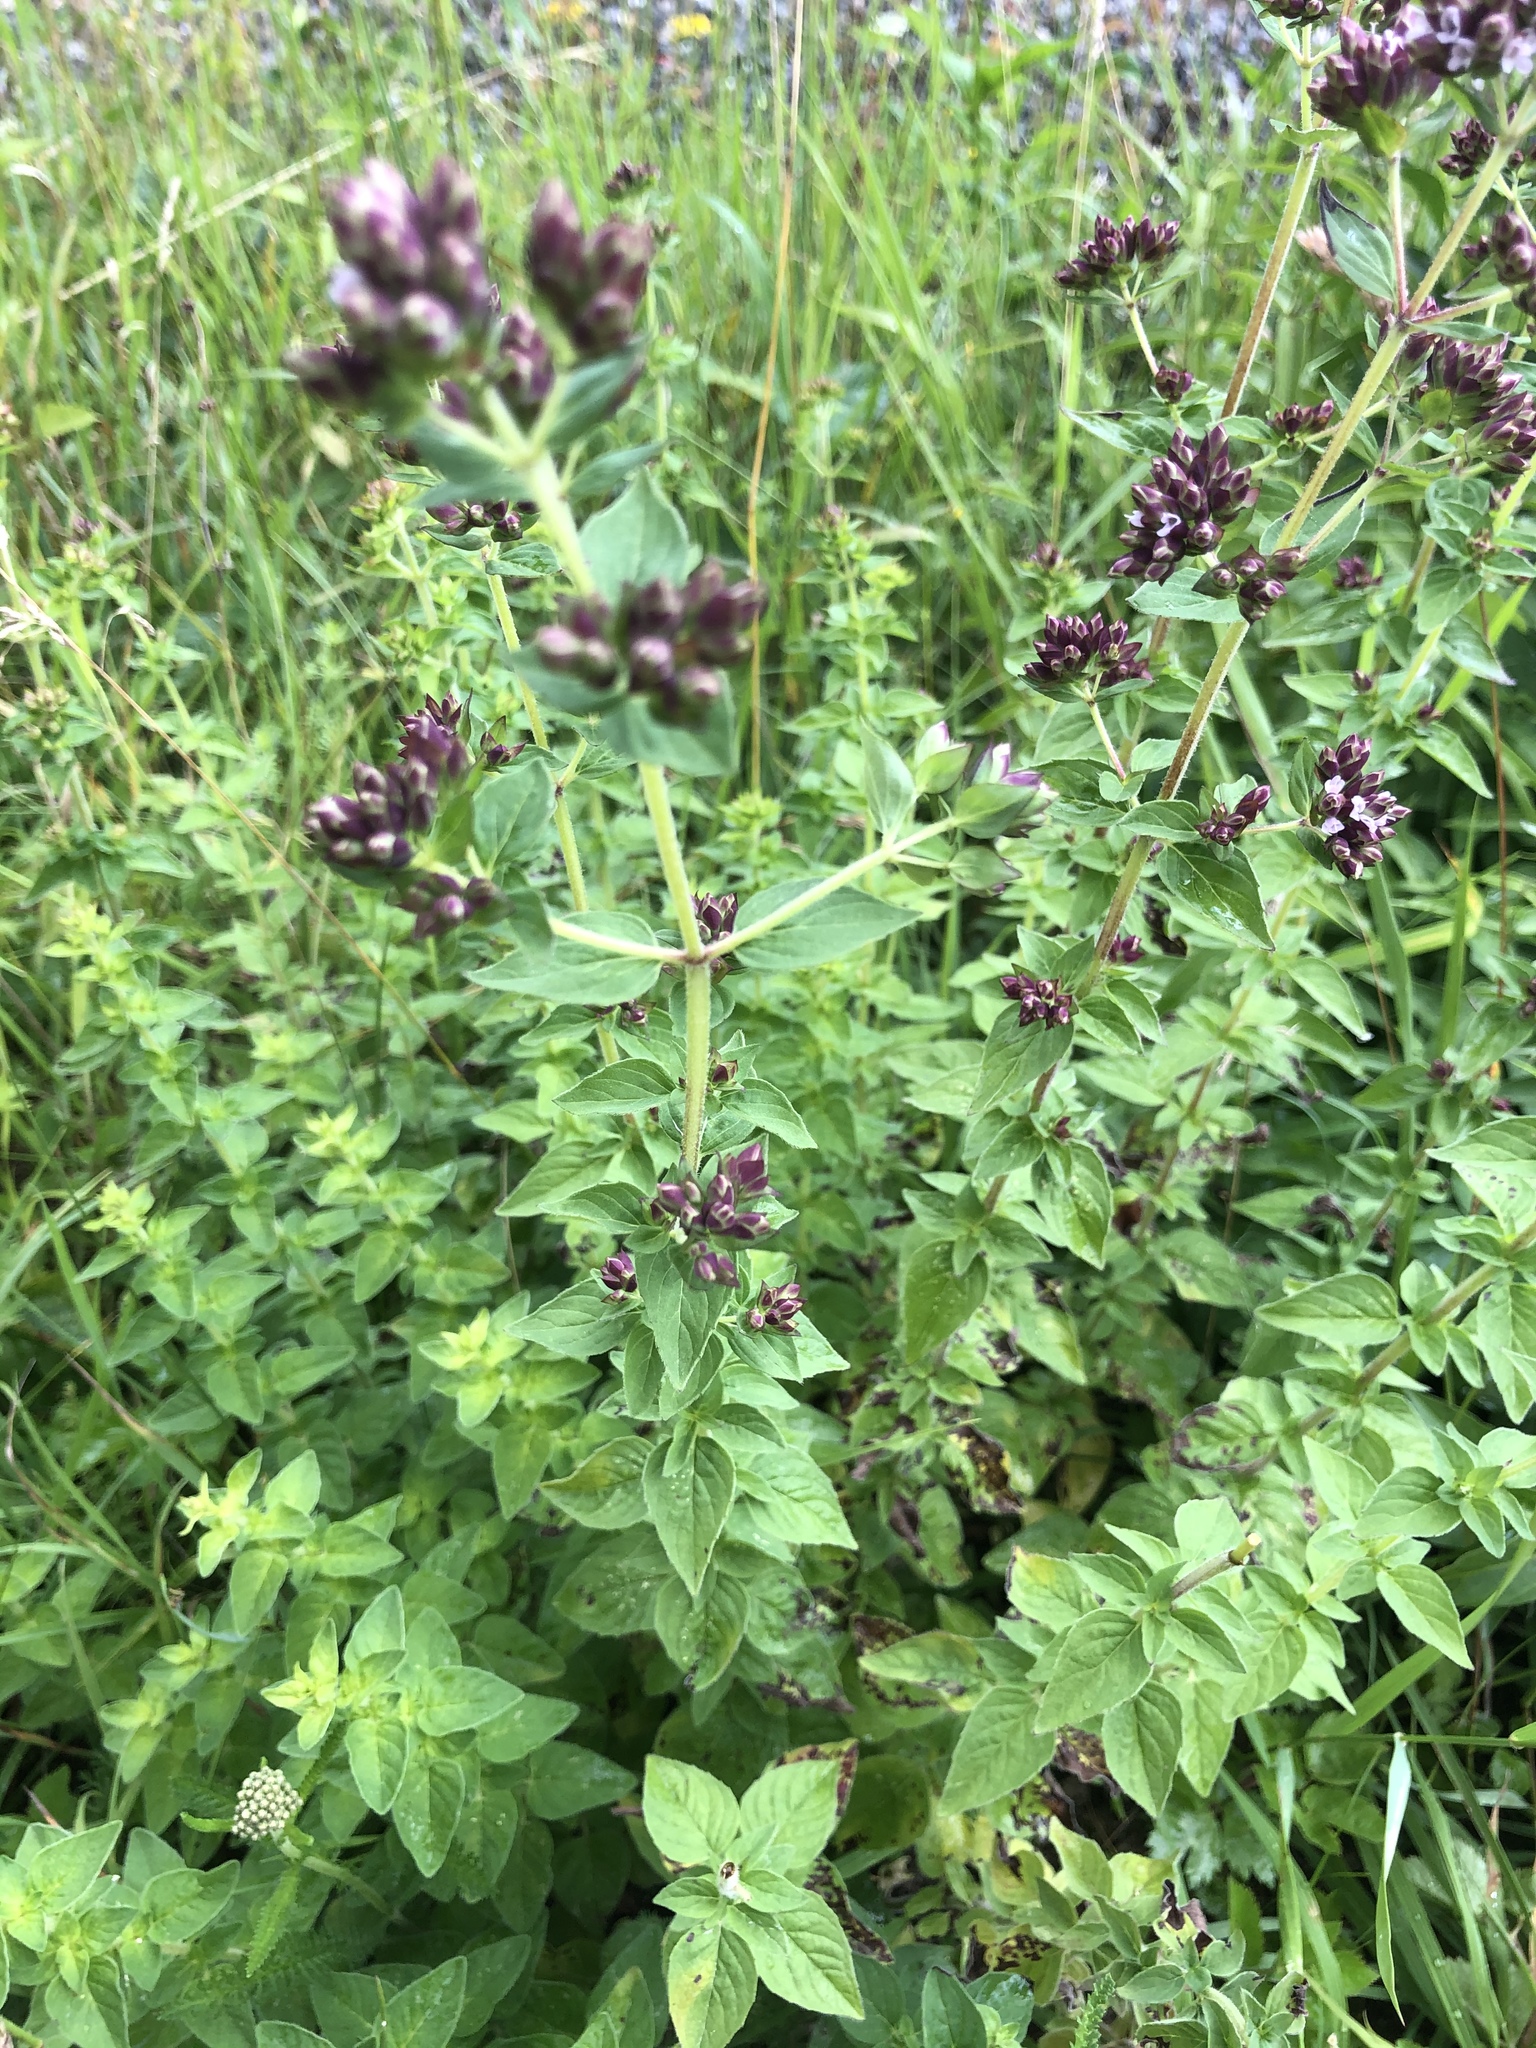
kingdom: Plantae
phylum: Tracheophyta
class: Magnoliopsida
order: Lamiales
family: Lamiaceae
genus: Origanum
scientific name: Origanum vulgare
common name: Wild marjoram
